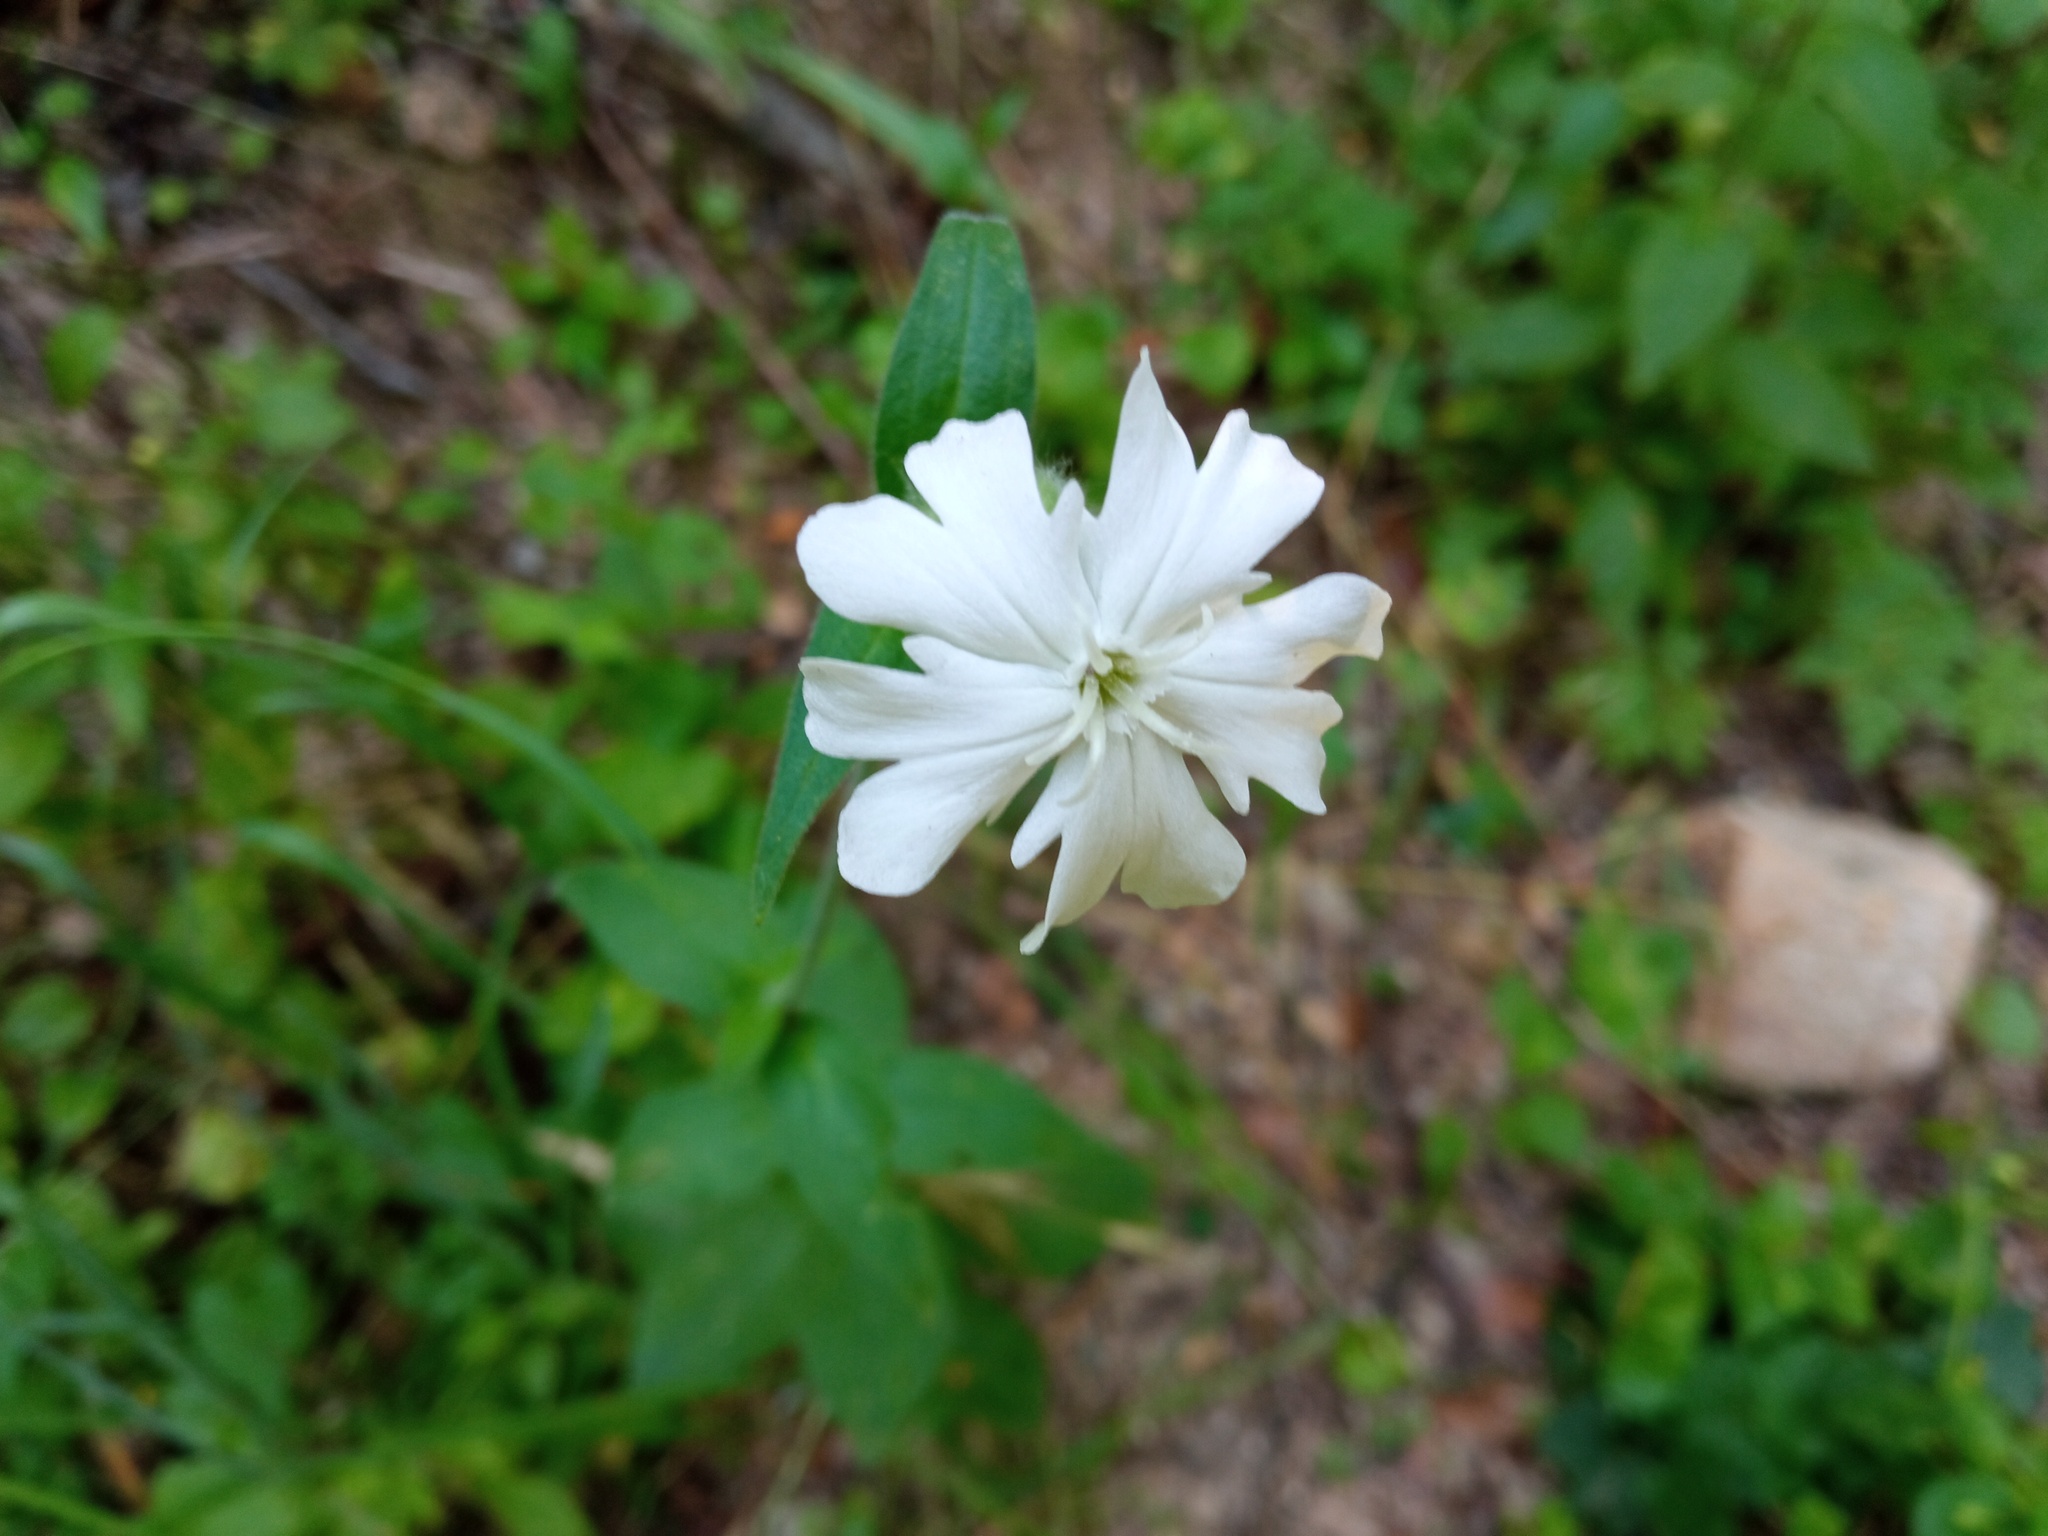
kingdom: Plantae
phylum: Tracheophyta
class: Magnoliopsida
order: Caryophyllales
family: Caryophyllaceae
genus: Silene
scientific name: Silene latifolia
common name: White campion
